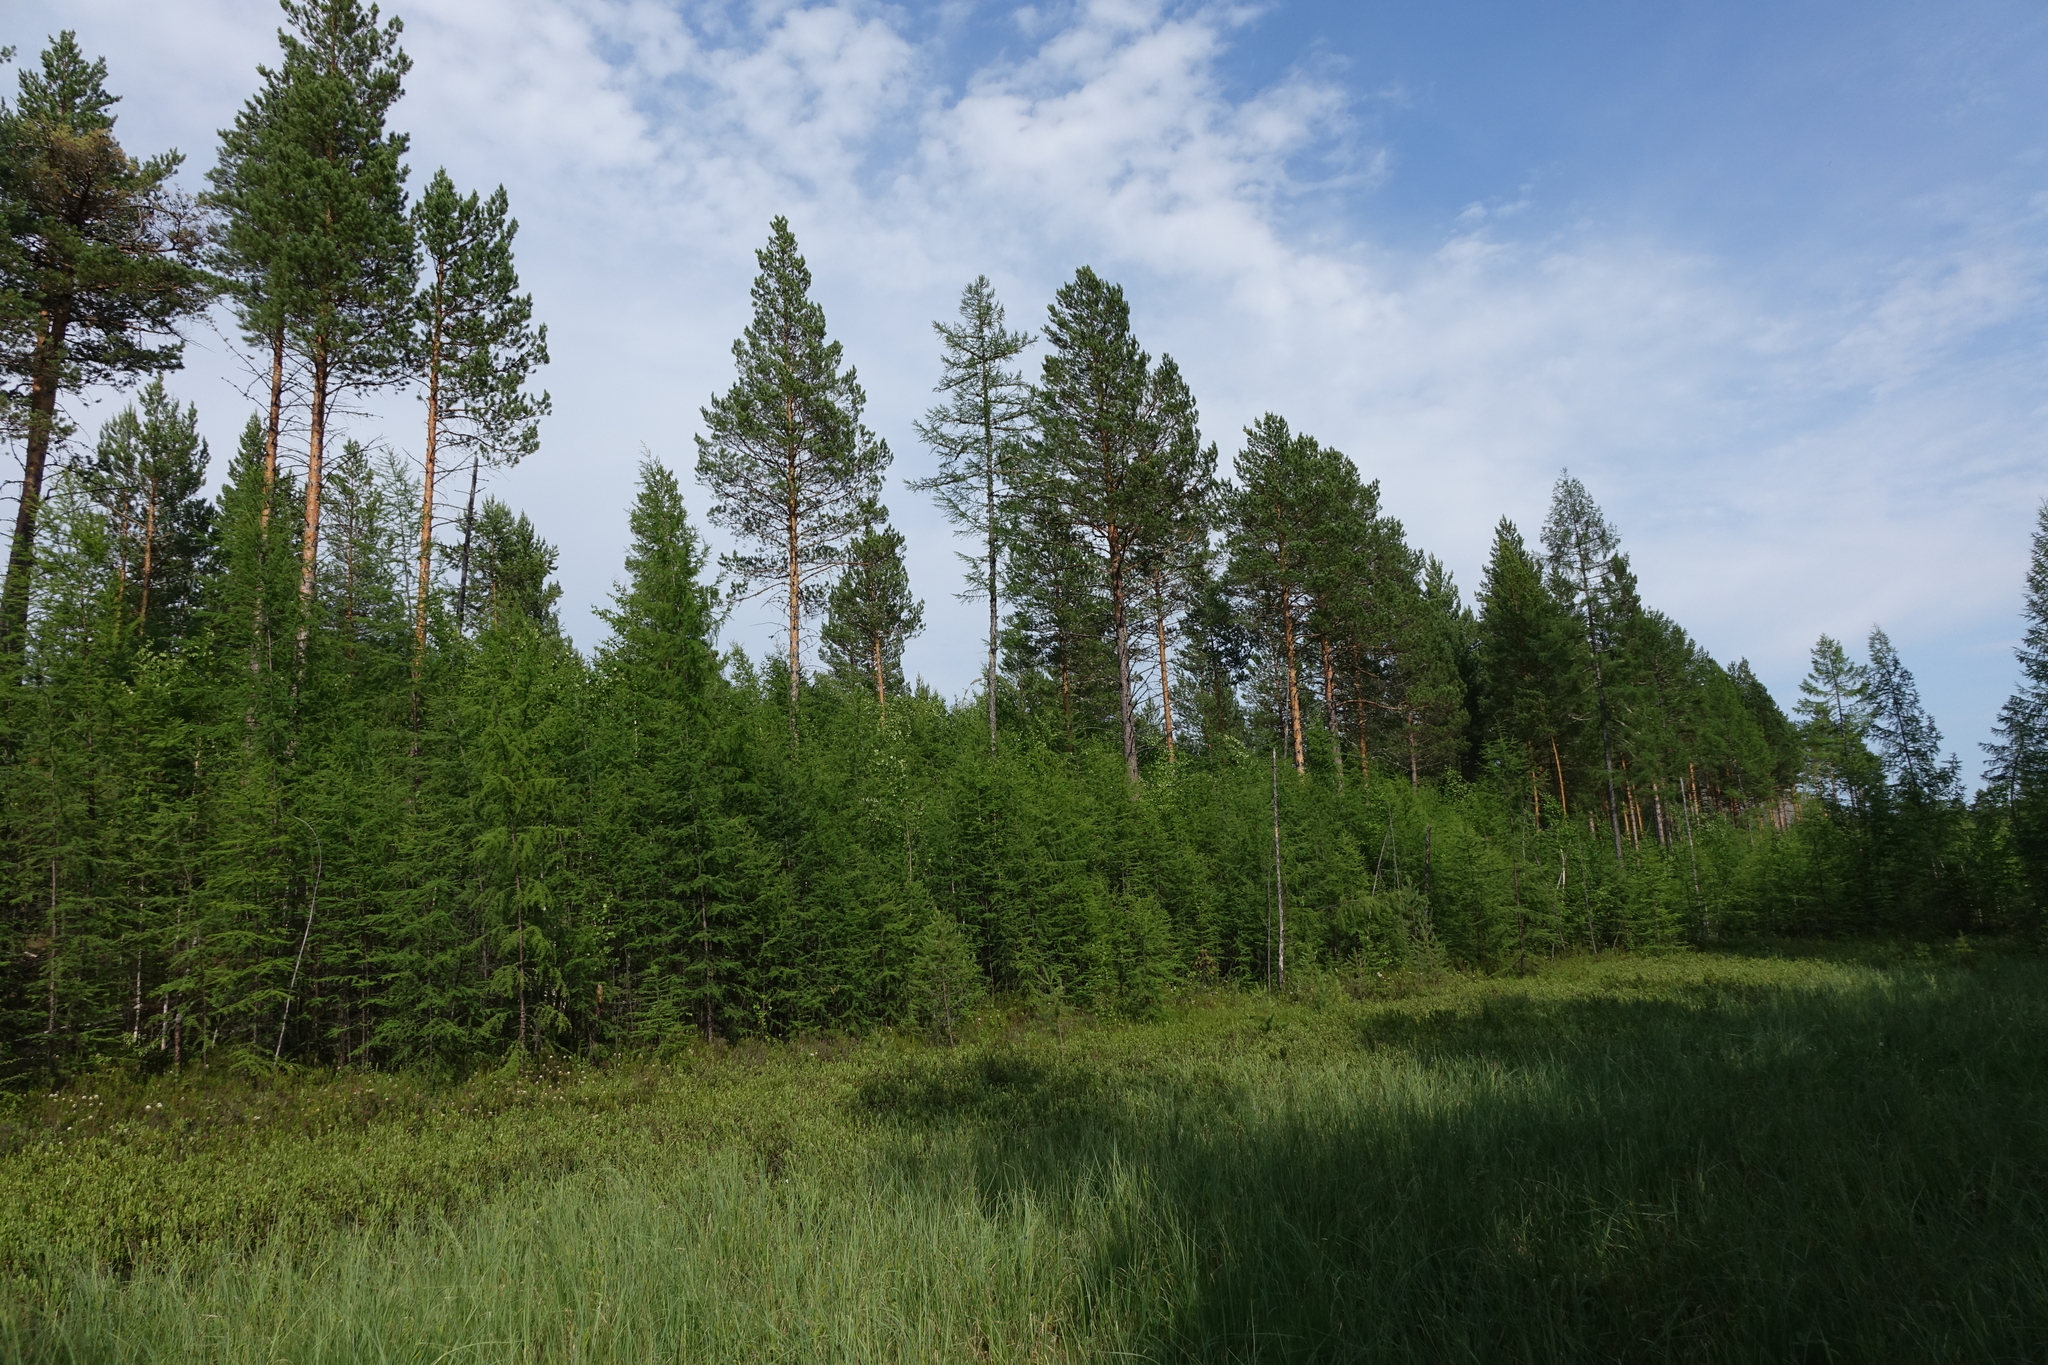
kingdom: Plantae
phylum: Tracheophyta
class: Pinopsida
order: Pinales
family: Pinaceae
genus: Pinus
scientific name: Pinus sylvestris
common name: Scots pine
